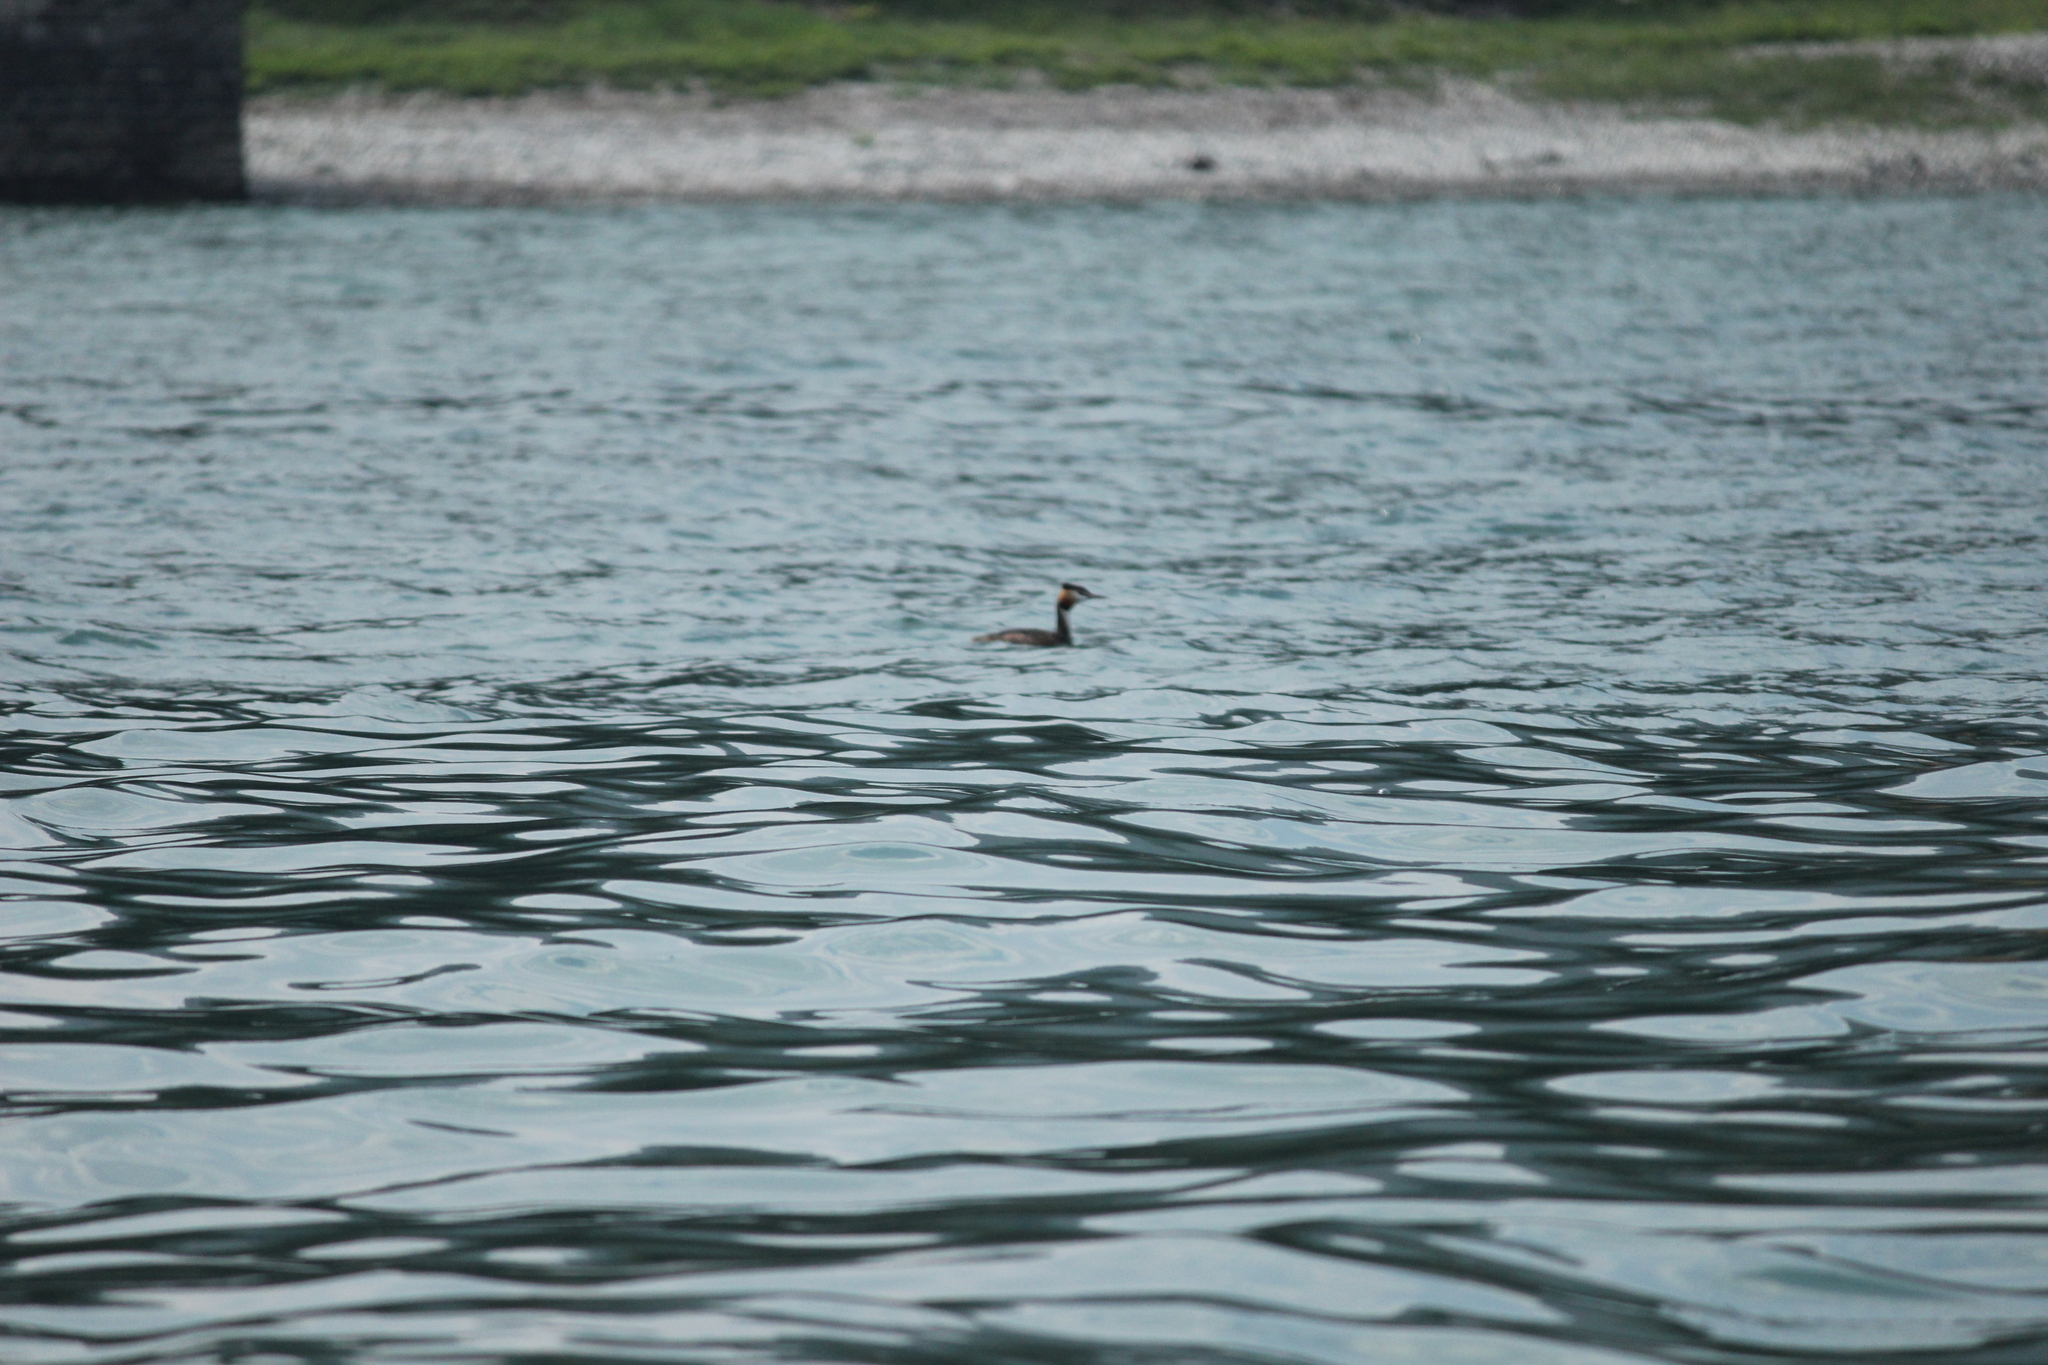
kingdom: Animalia
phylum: Chordata
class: Aves
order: Podicipediformes
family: Podicipedidae
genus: Podiceps
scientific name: Podiceps cristatus
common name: Great crested grebe
